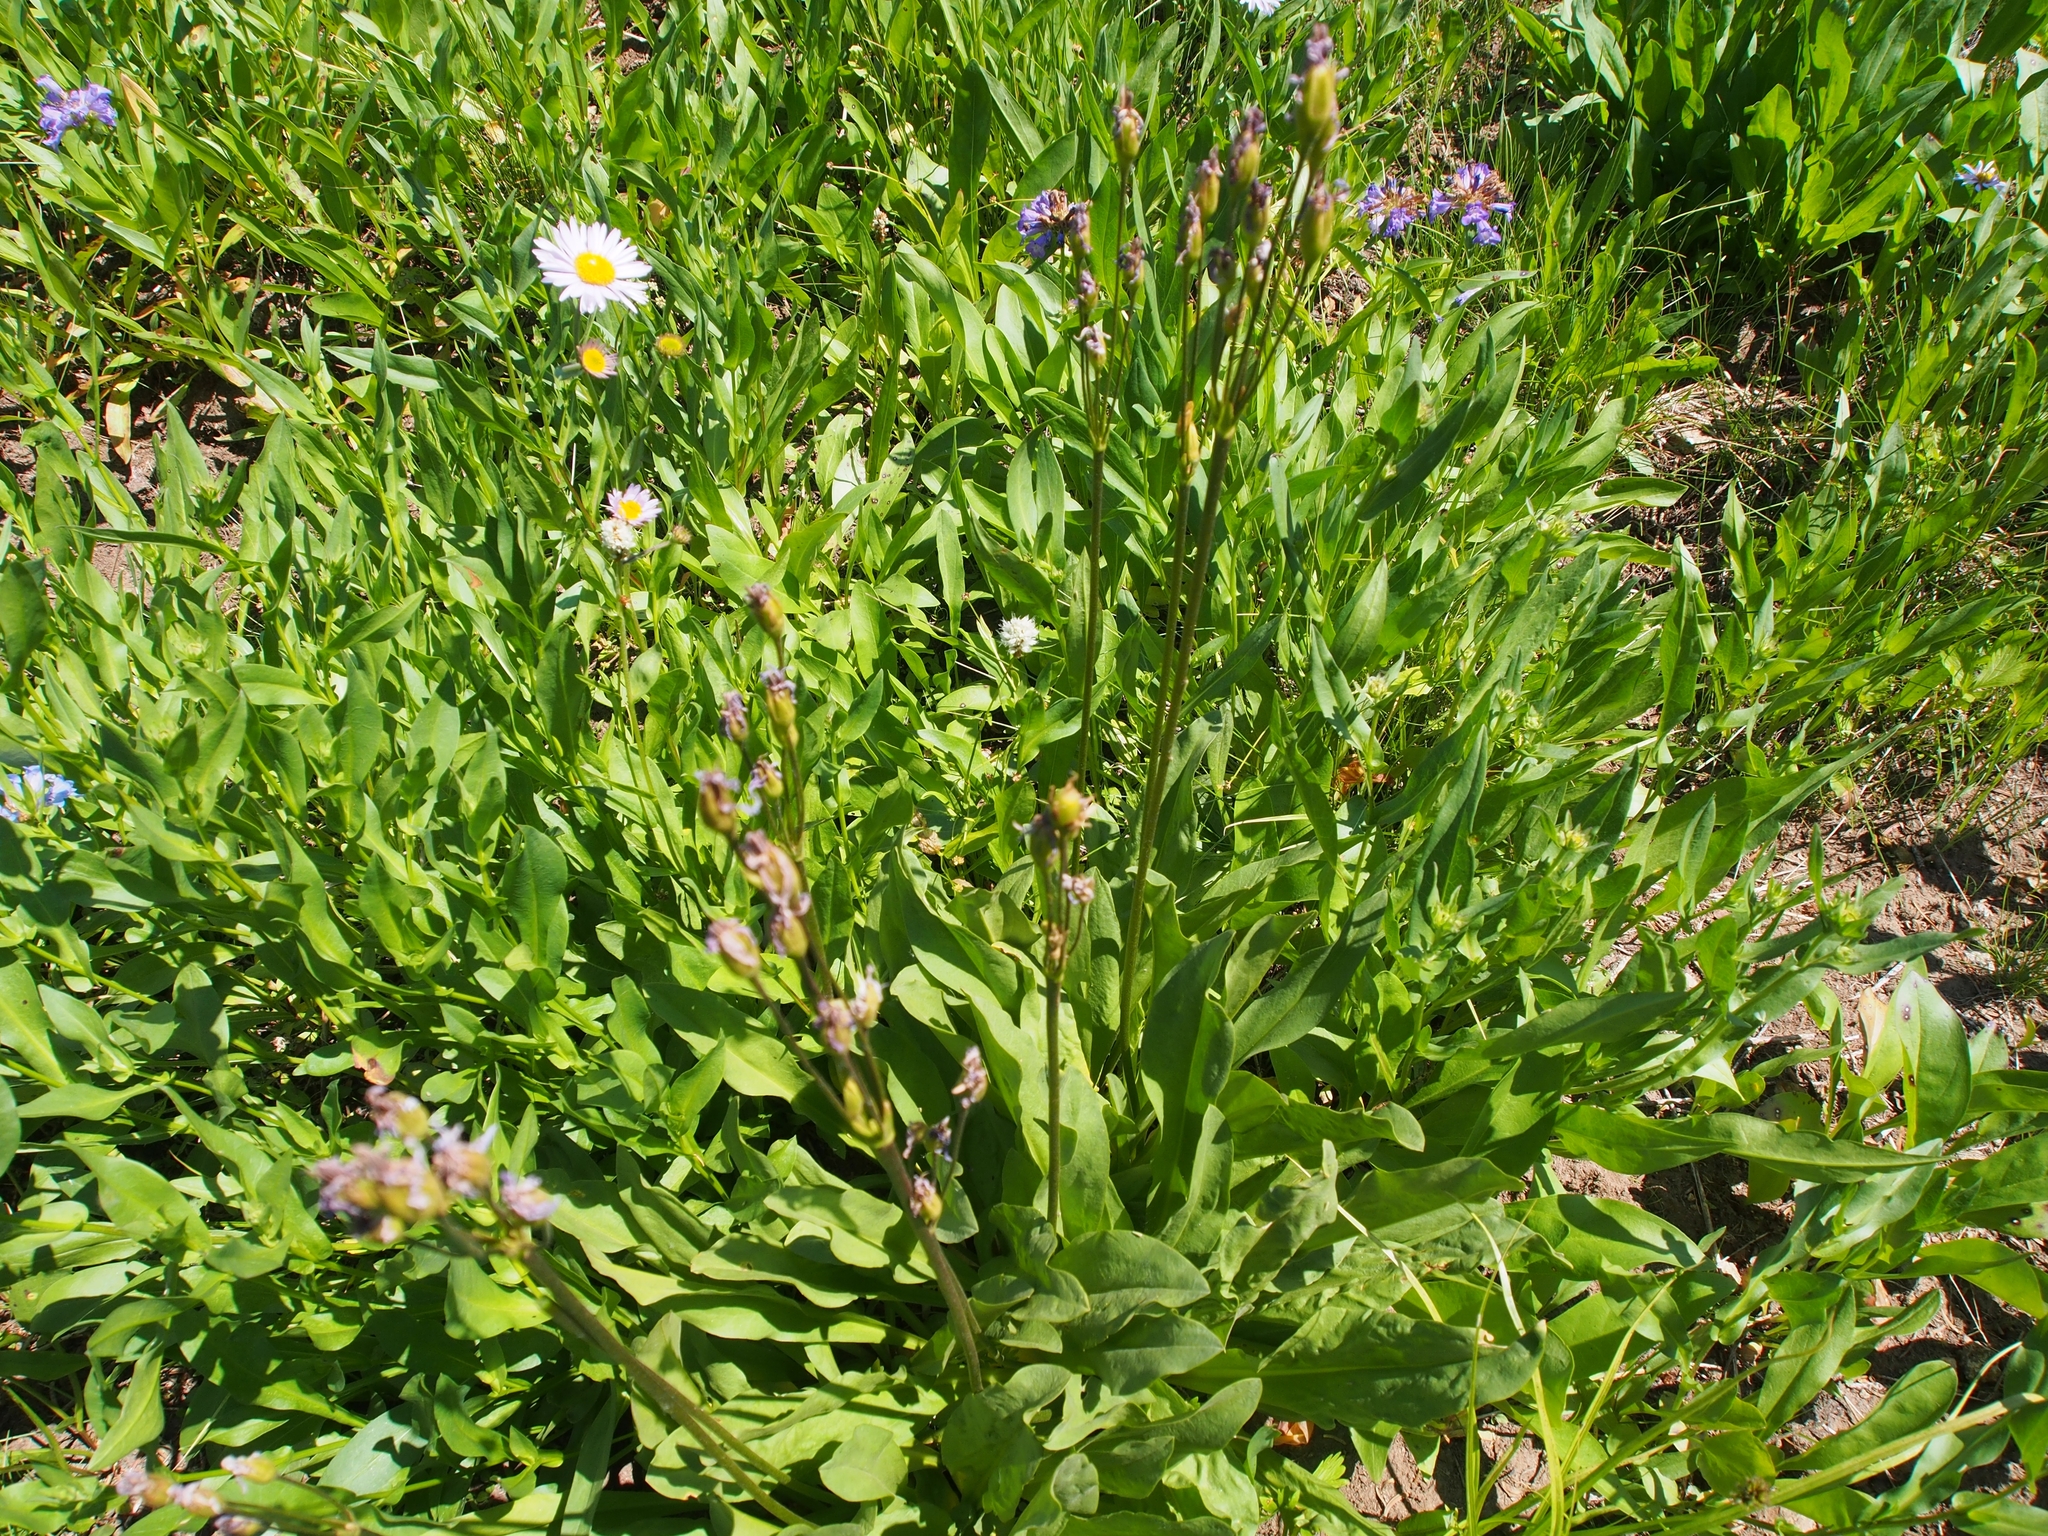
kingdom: Plantae
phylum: Tracheophyta
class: Magnoliopsida
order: Ericales
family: Primulaceae
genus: Dodecatheon
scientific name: Dodecatheon pulchellum
